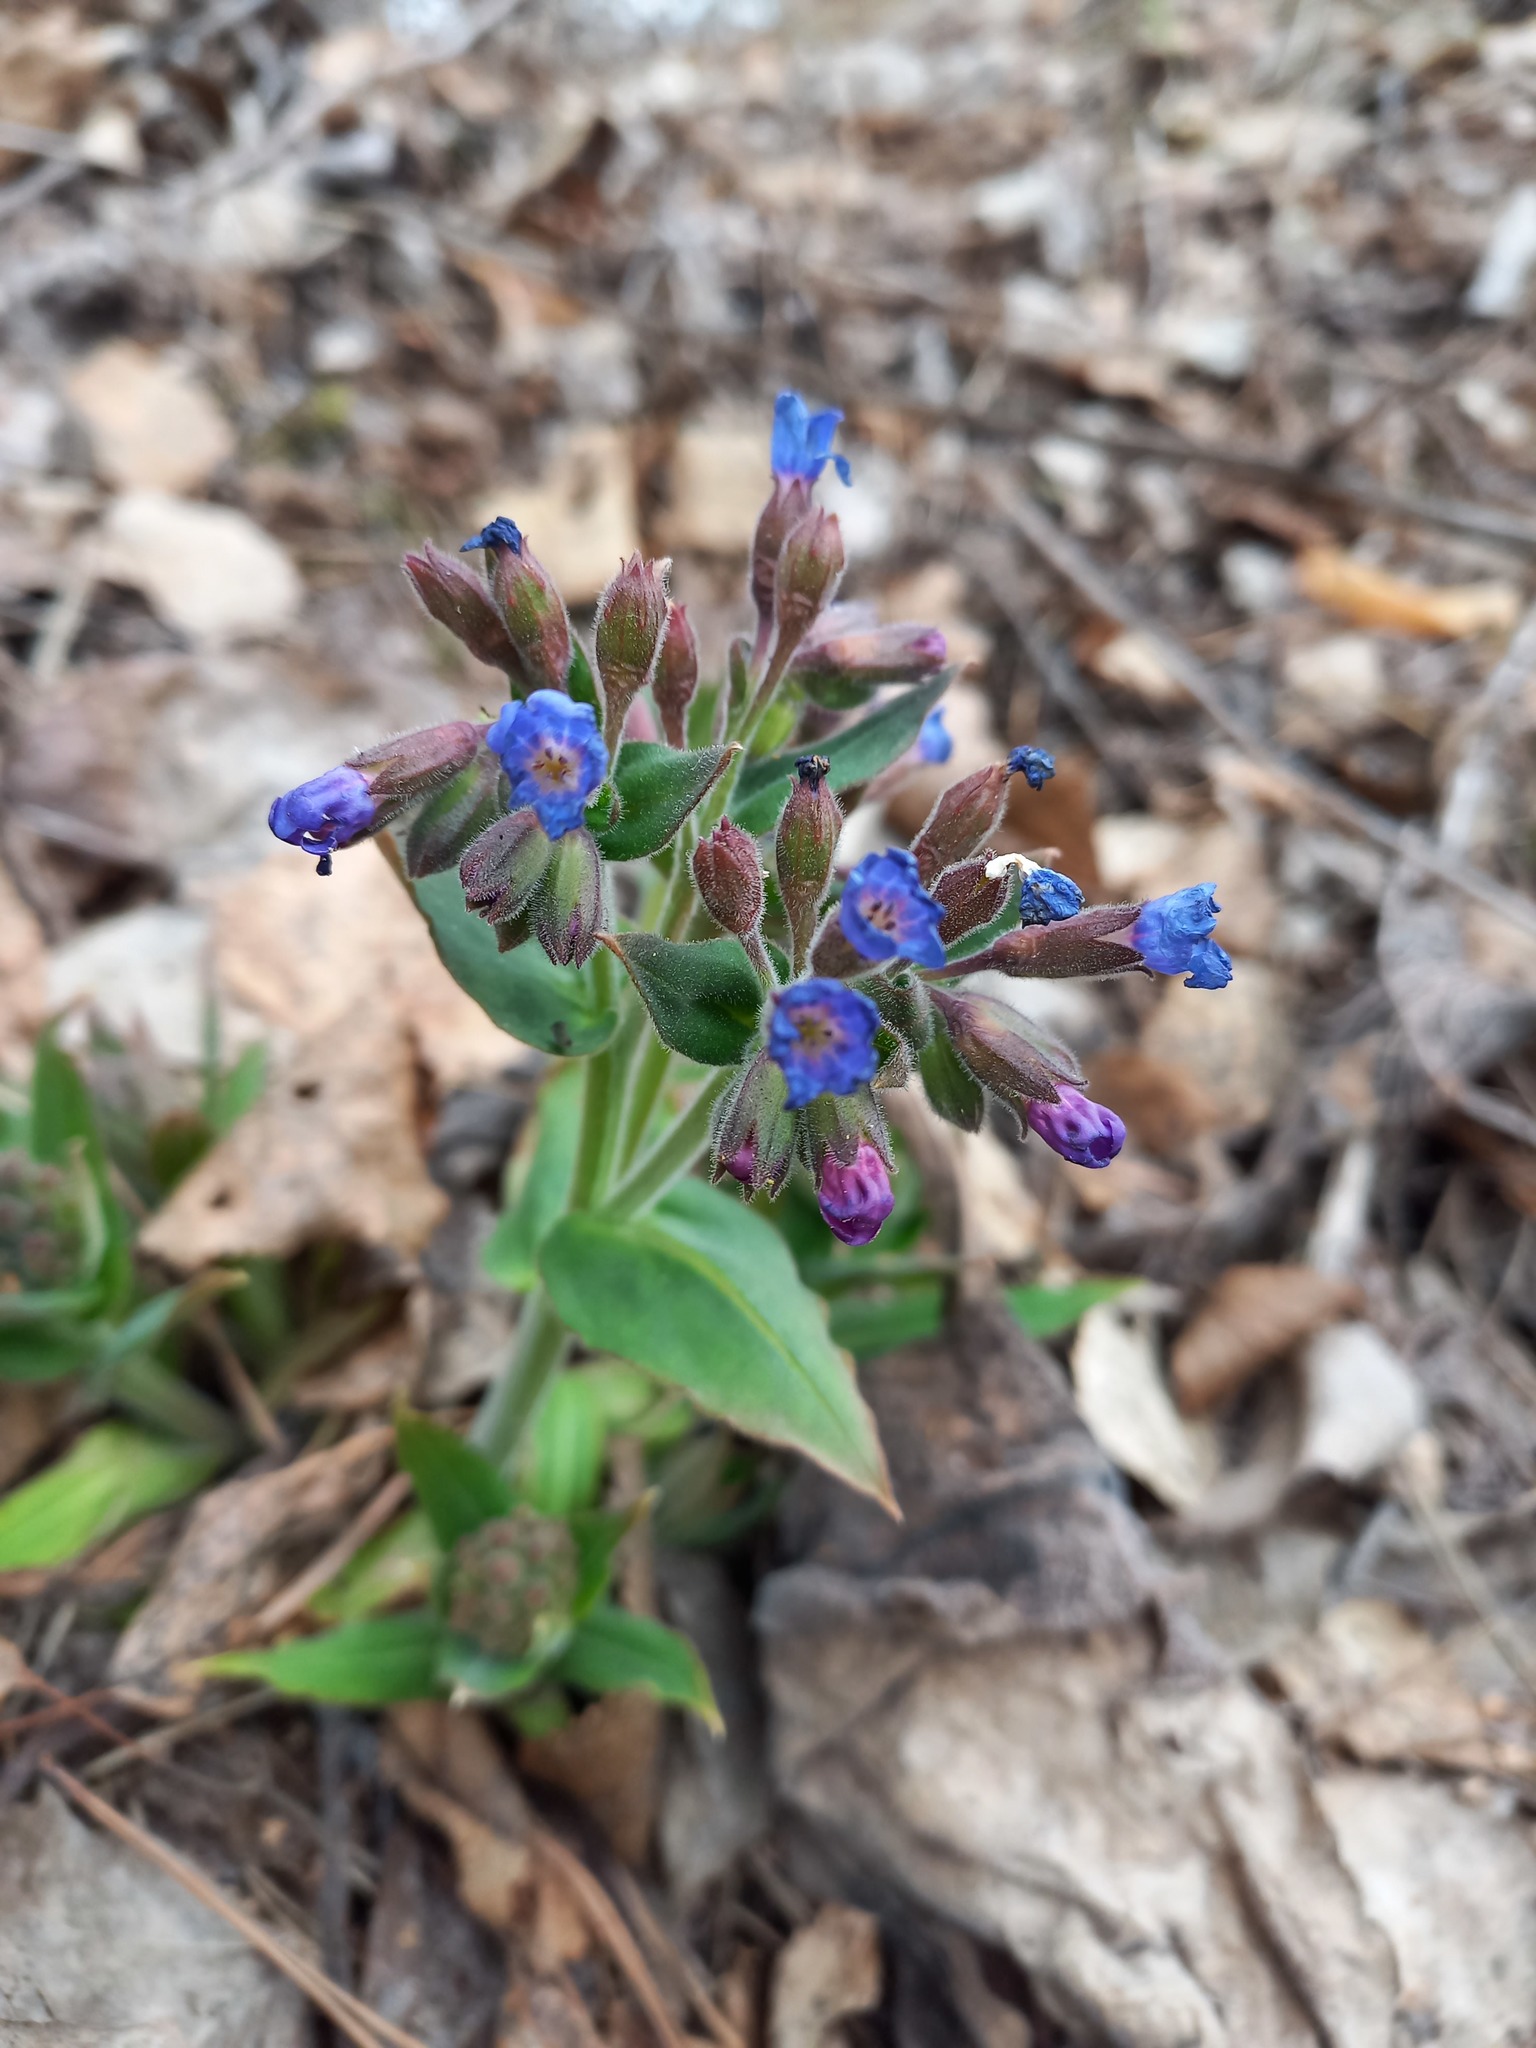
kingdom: Plantae
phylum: Tracheophyta
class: Magnoliopsida
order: Boraginales
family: Boraginaceae
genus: Pulmonaria
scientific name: Pulmonaria mollis
